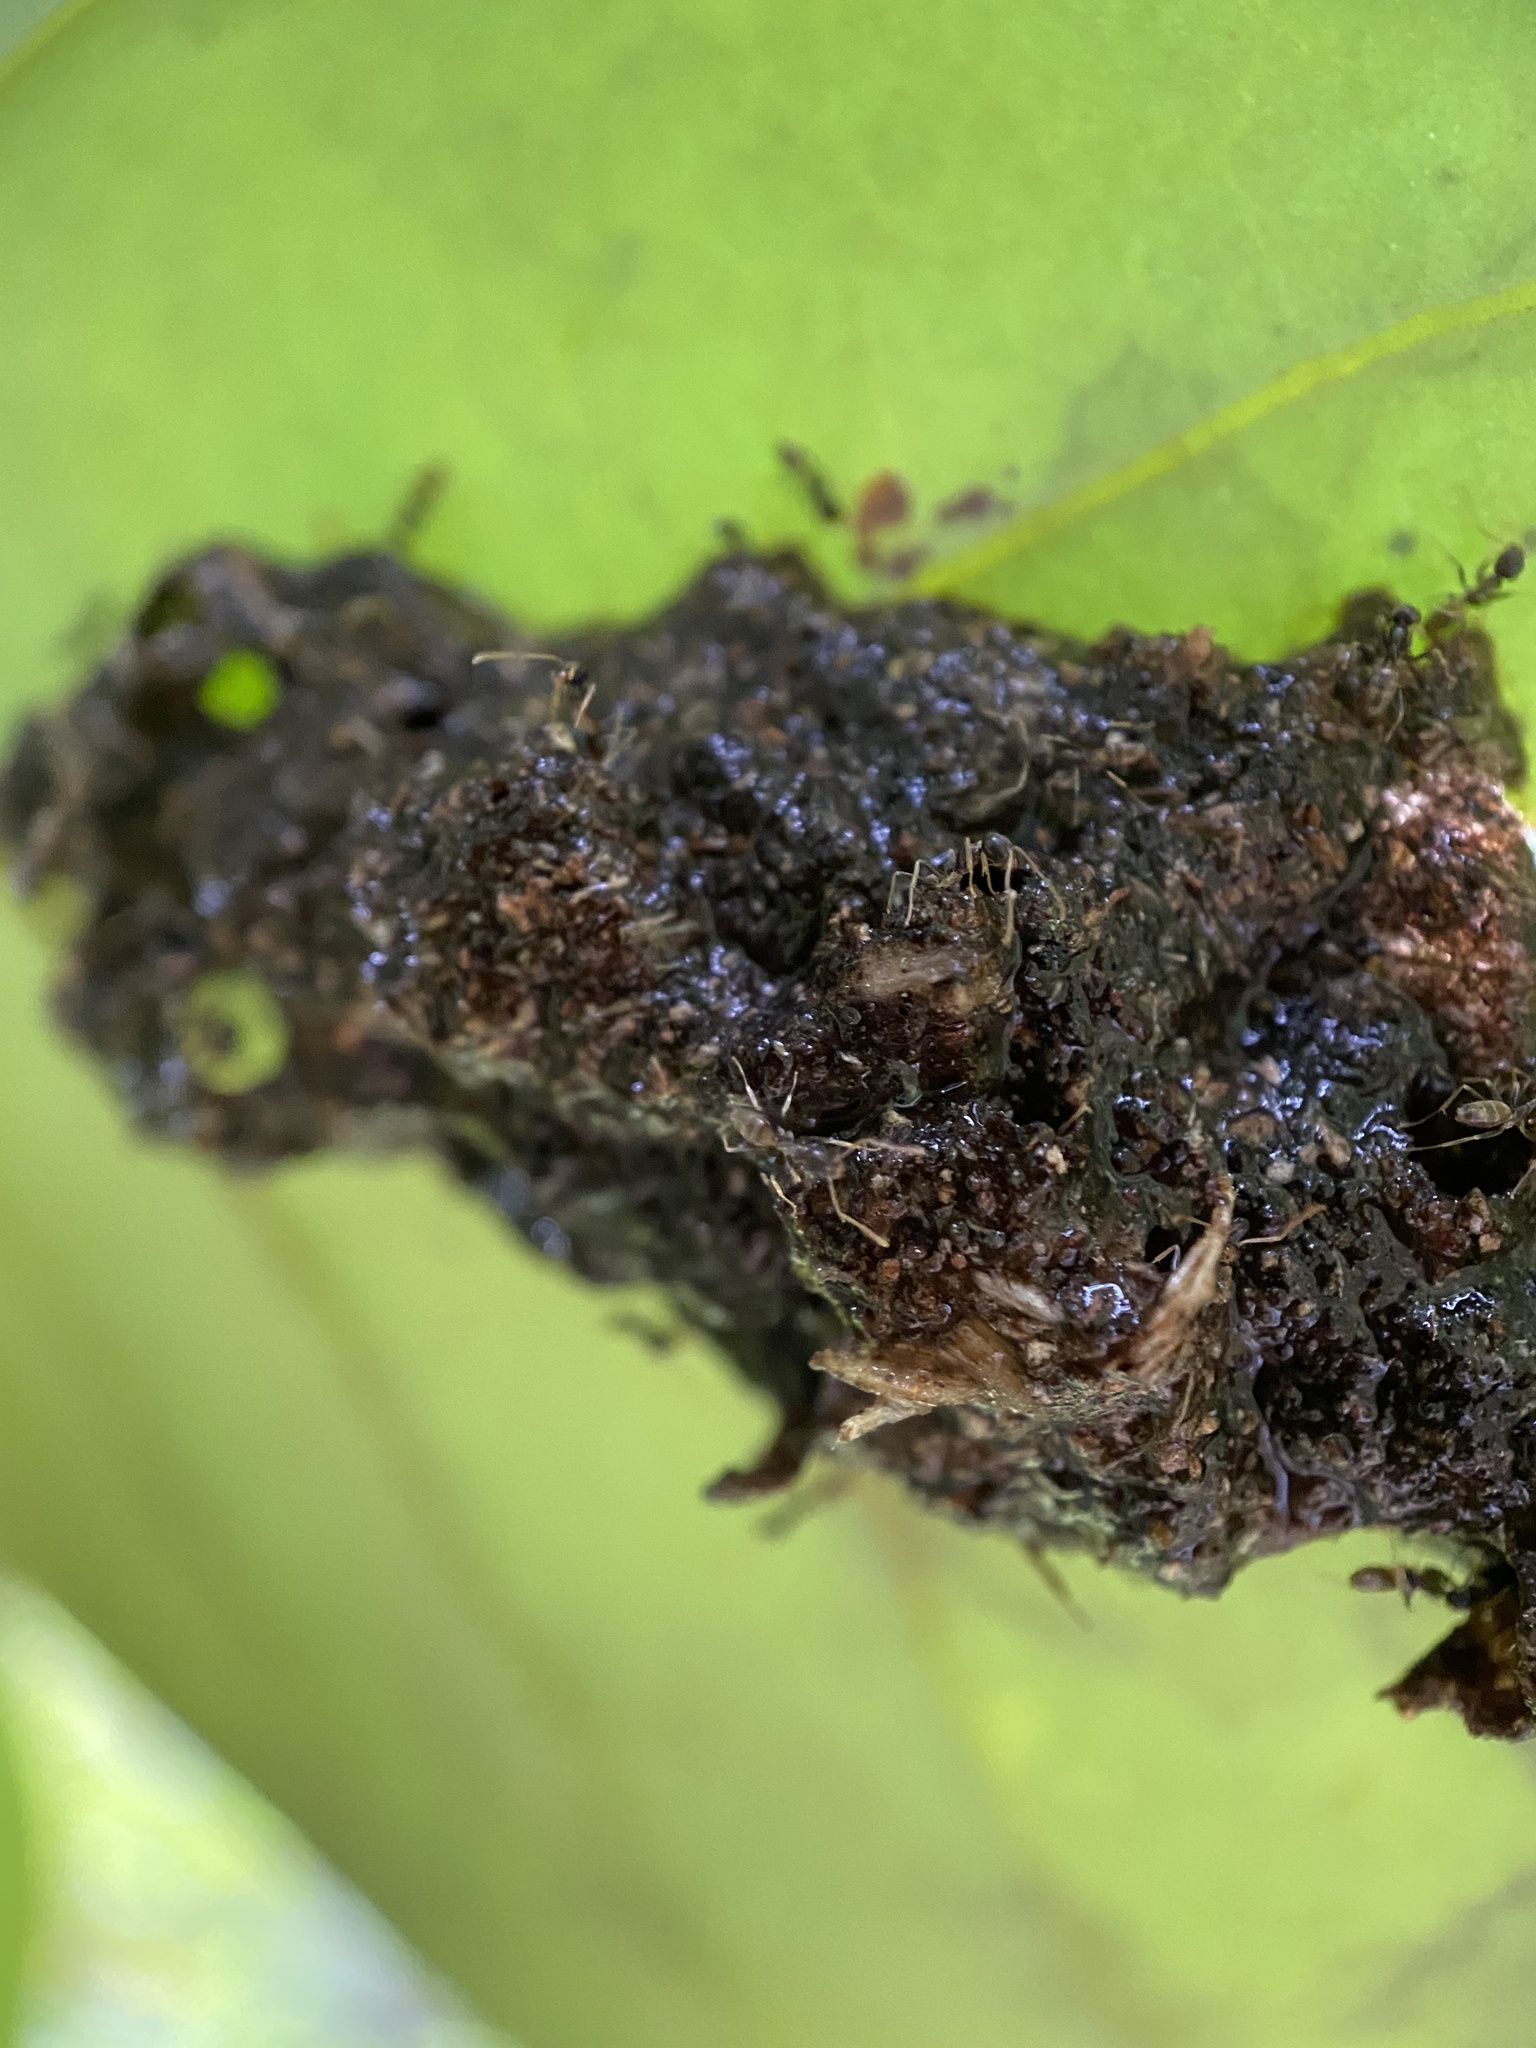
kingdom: Animalia
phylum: Arthropoda
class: Insecta
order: Hymenoptera
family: Formicidae
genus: Tapinoma
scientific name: Tapinoma ramulorum
